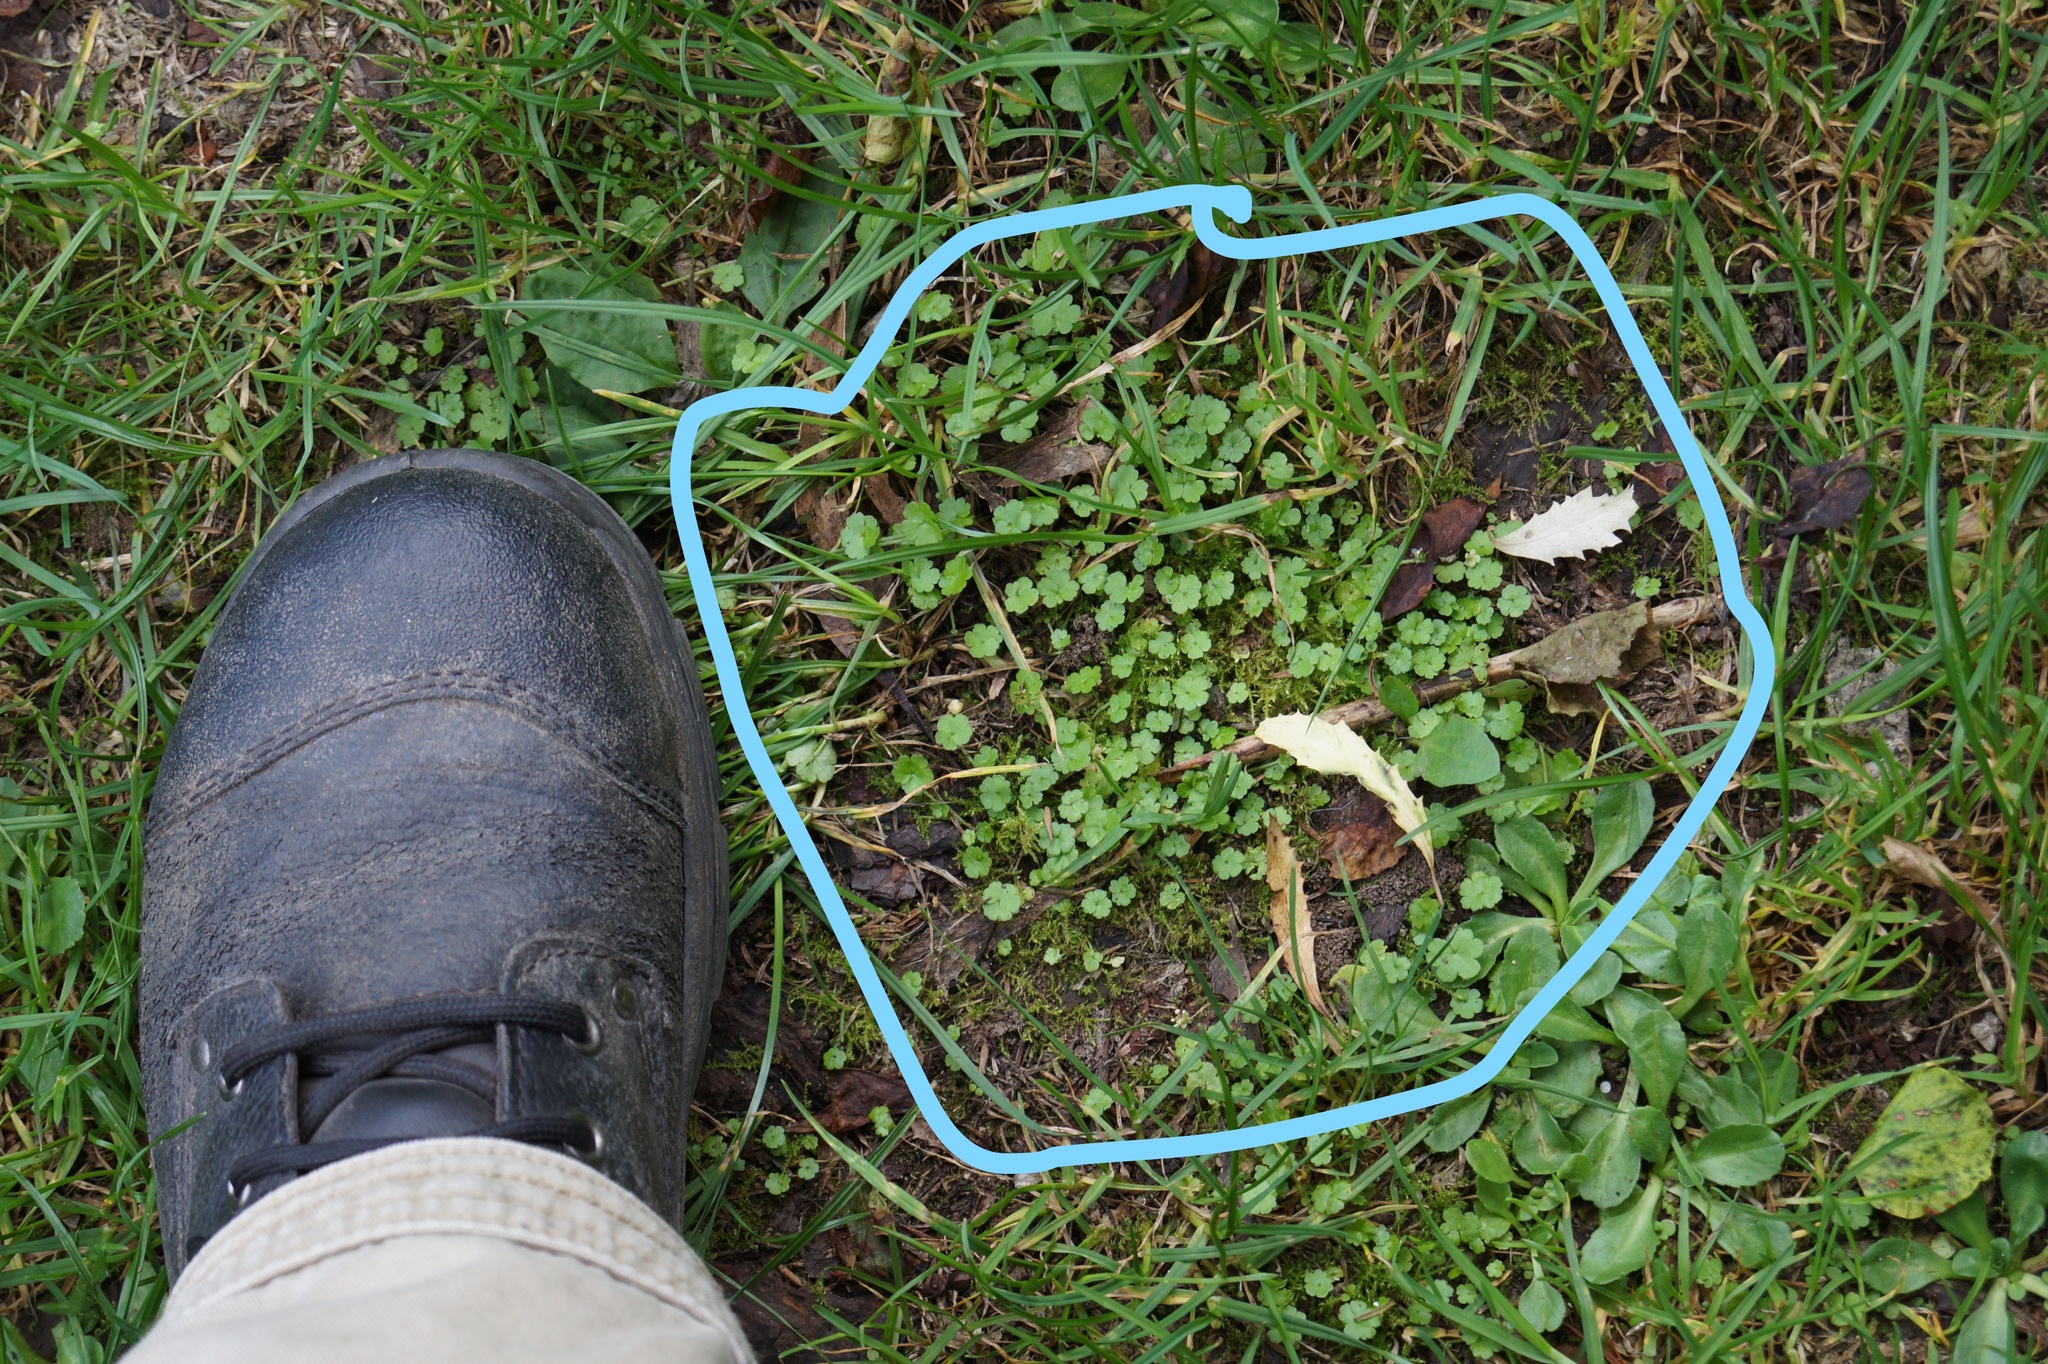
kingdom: Plantae
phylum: Tracheophyta
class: Magnoliopsida
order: Apiales
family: Araliaceae
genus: Hydrocotyle
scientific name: Hydrocotyle heteromeria
